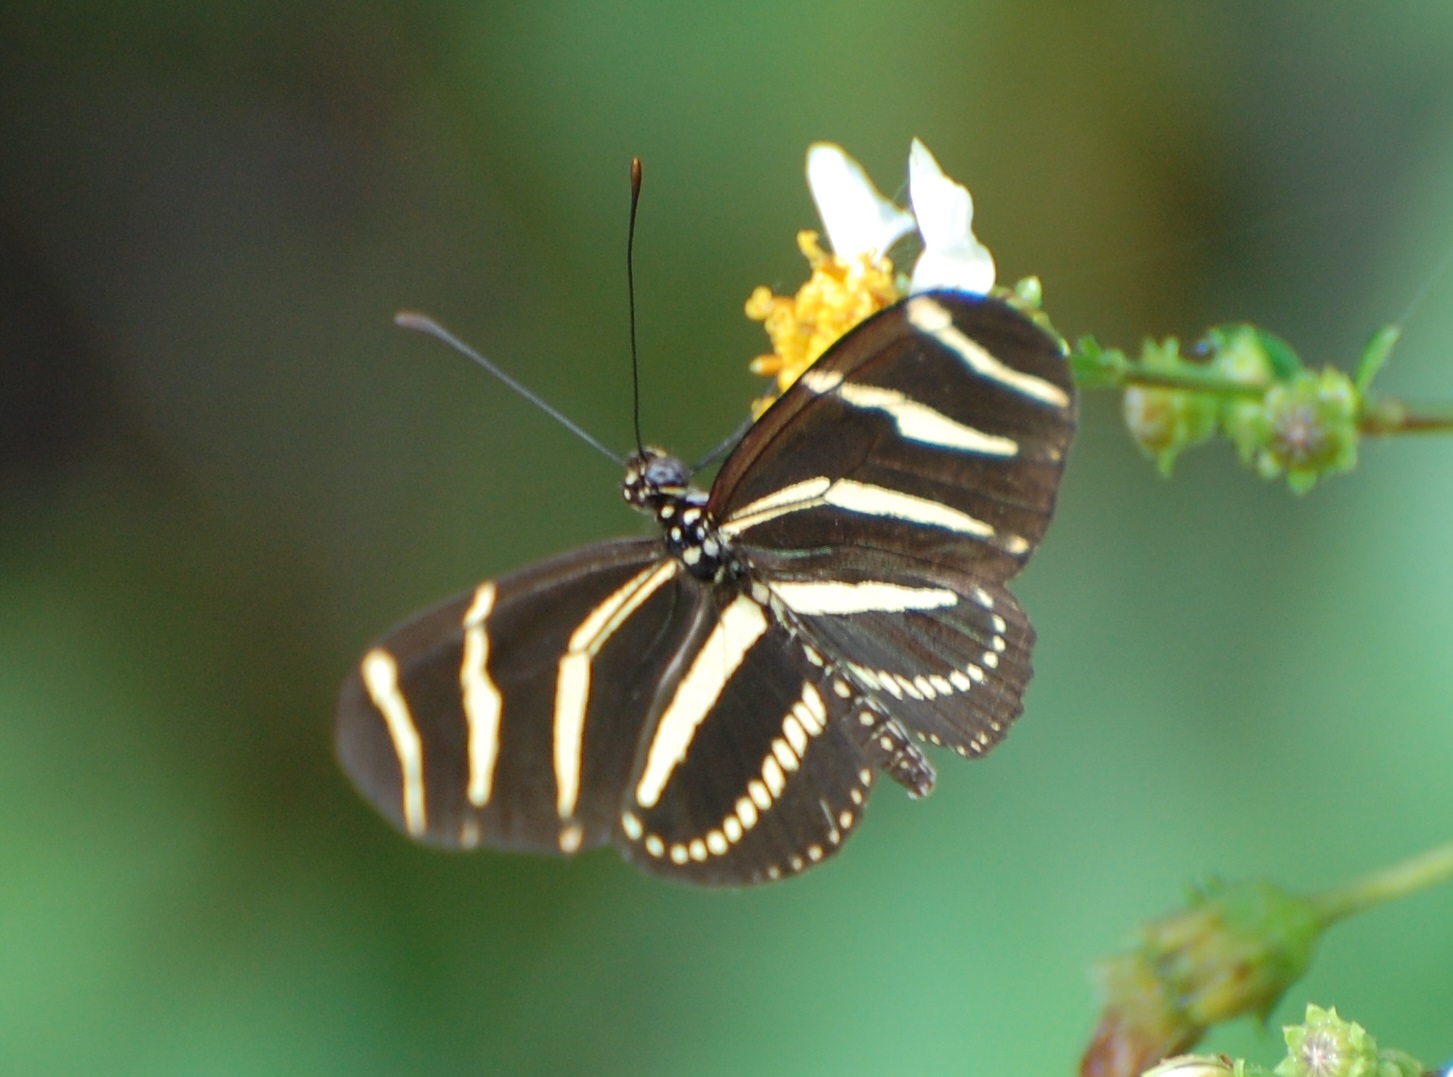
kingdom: Animalia
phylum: Arthropoda
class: Insecta
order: Lepidoptera
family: Nymphalidae
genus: Heliconius
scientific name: Heliconius charithonia
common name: Zebra long wing
